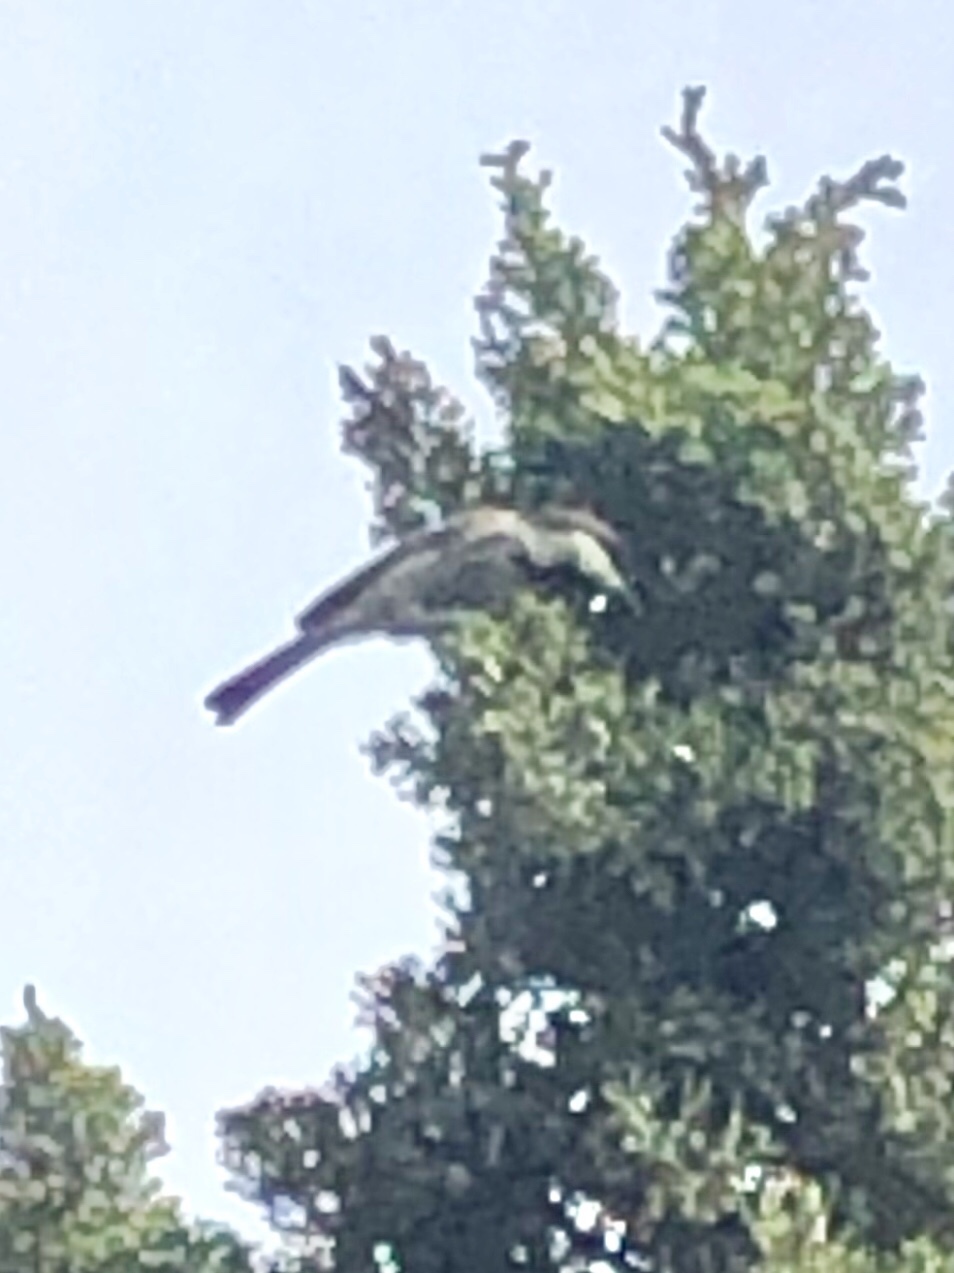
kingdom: Animalia
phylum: Chordata
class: Aves
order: Passeriformes
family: Paridae
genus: Poecile
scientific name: Poecile rufescens
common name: Chestnut-backed chickadee
